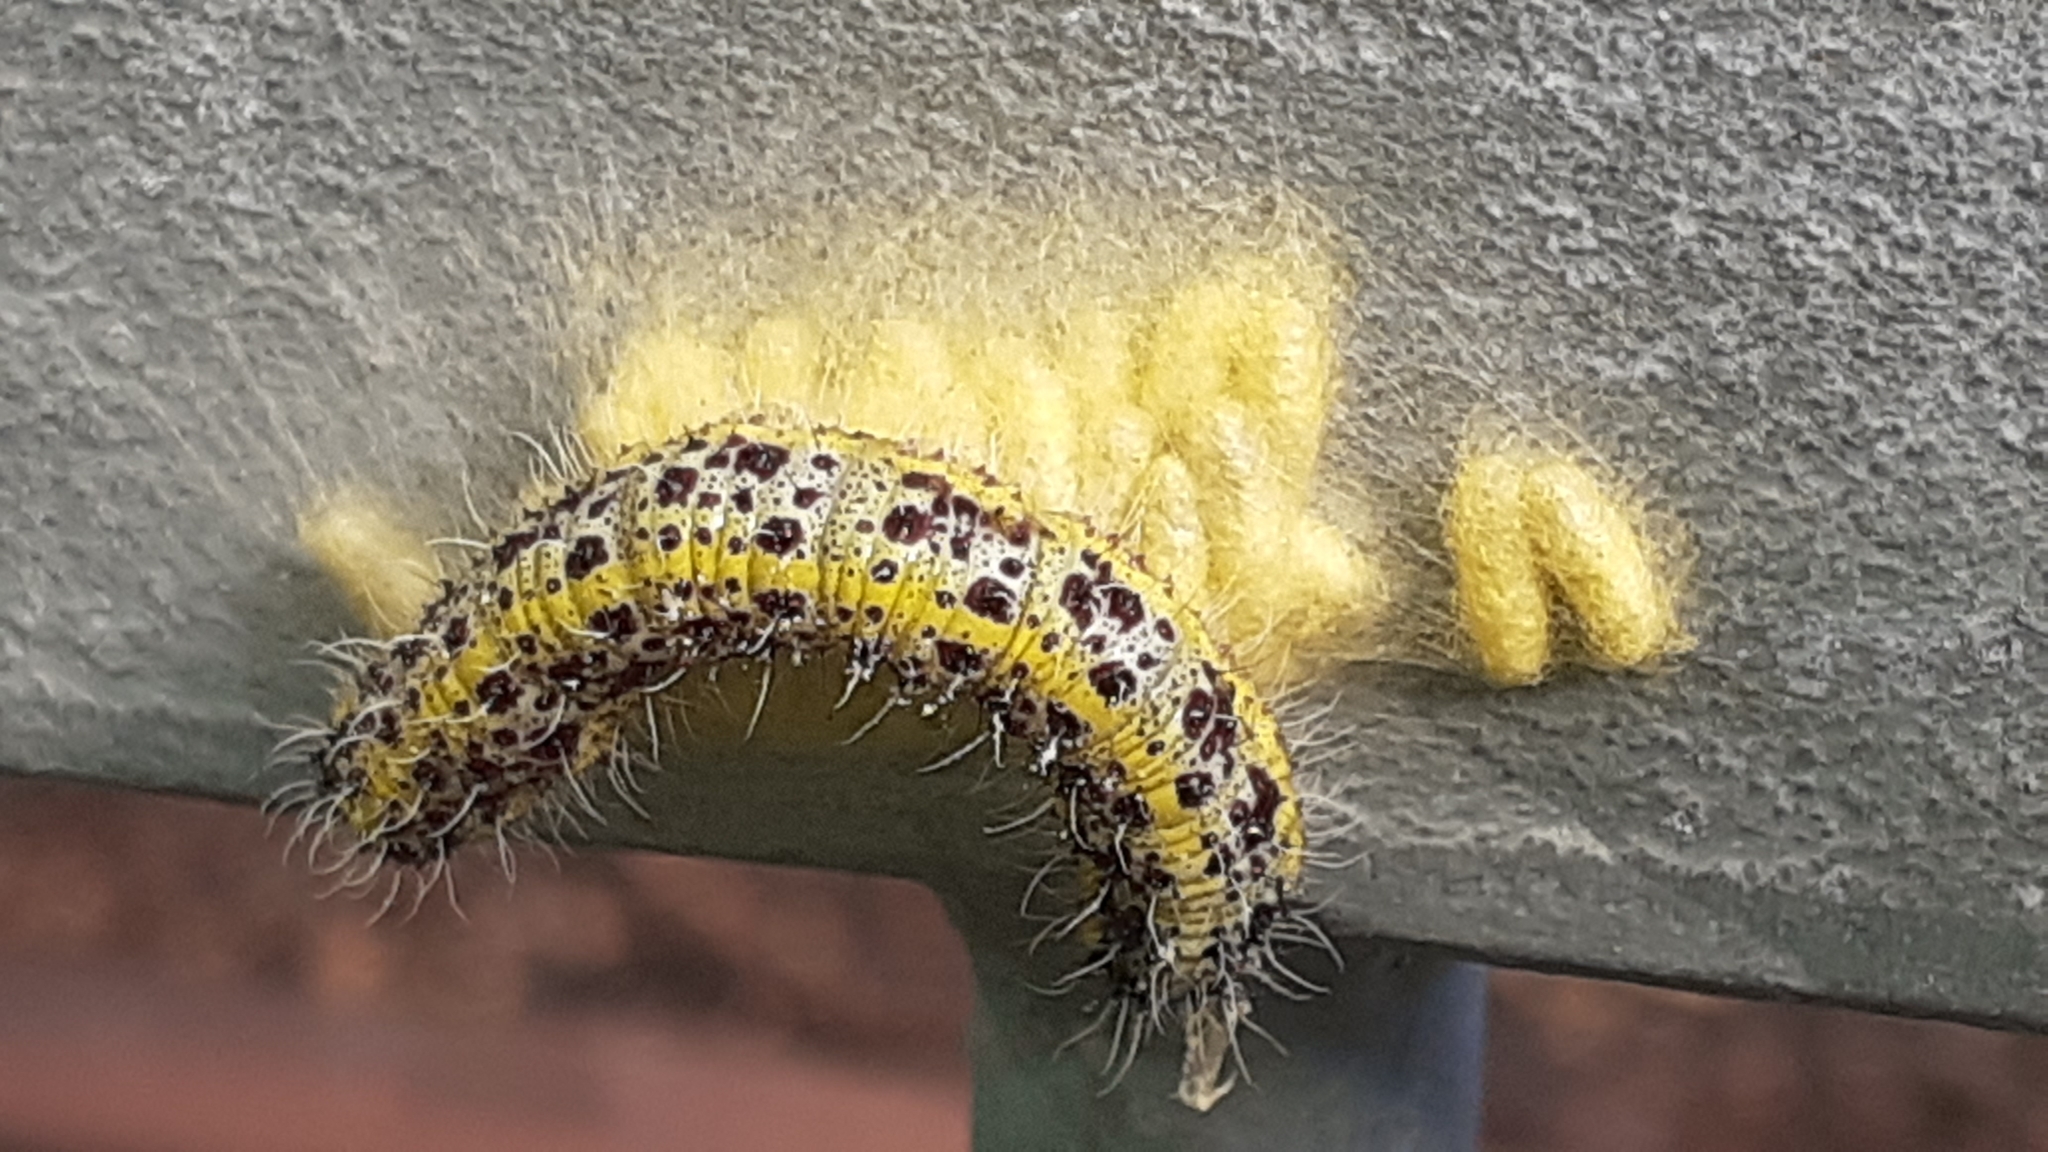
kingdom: Animalia
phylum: Arthropoda
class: Insecta
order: Hymenoptera
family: Braconidae
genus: Cotesia
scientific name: Cotesia glomerata
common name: Parasitoid wasp
